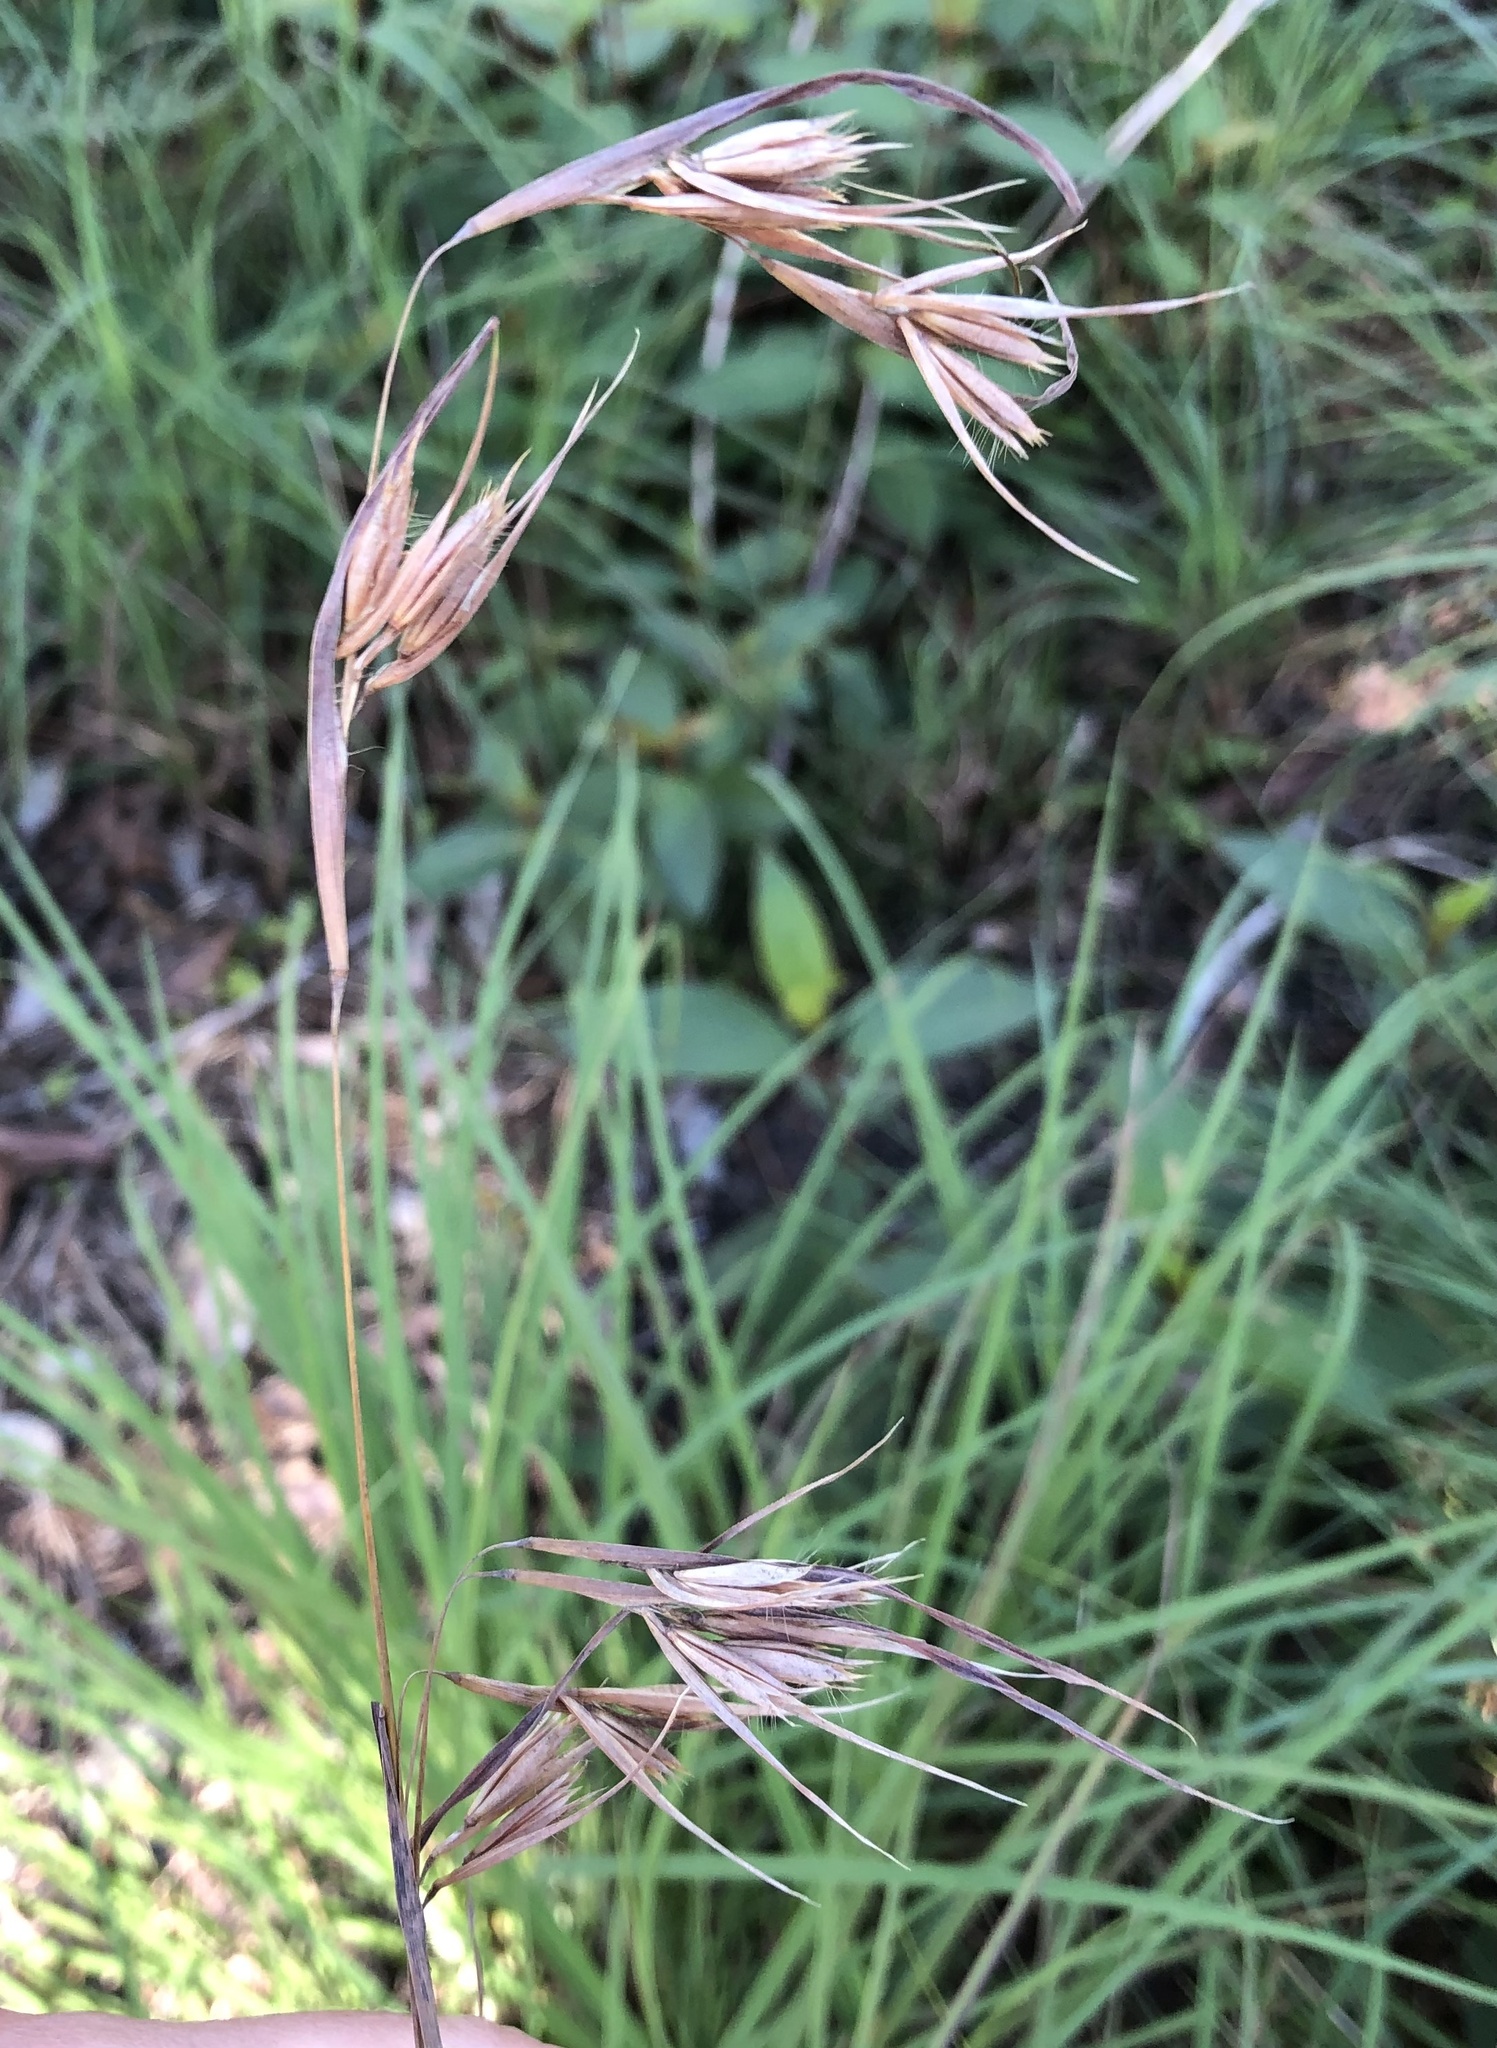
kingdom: Plantae
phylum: Tracheophyta
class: Liliopsida
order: Poales
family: Poaceae
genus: Themeda
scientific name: Themeda triandra
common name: Kangaroo grass
